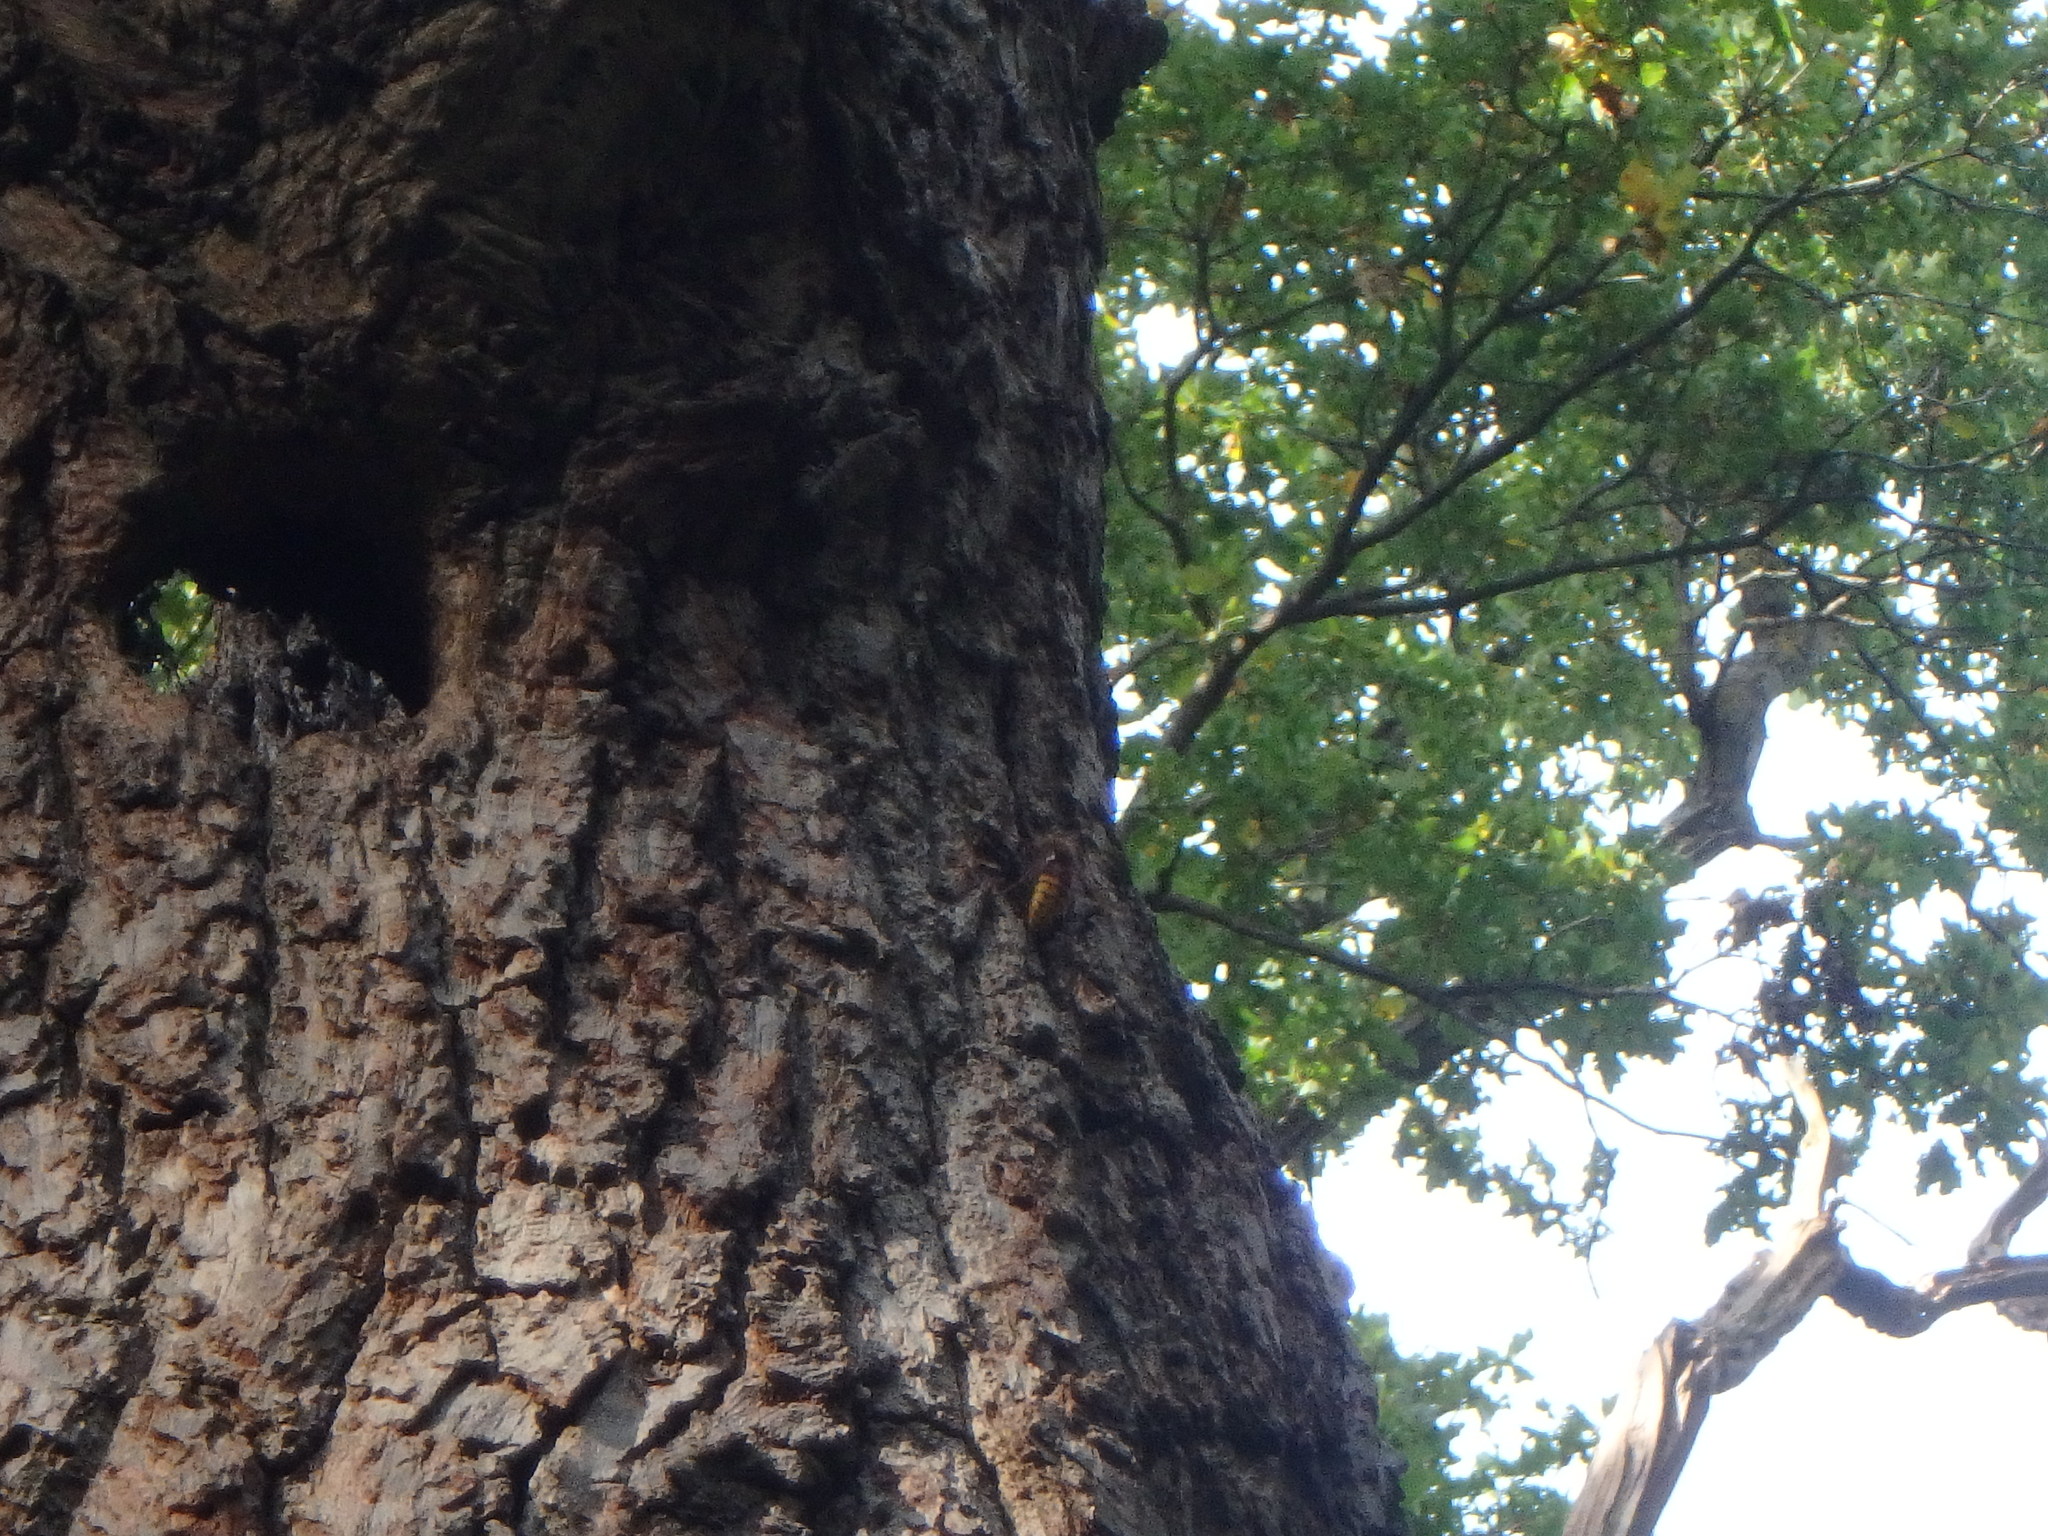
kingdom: Animalia
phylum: Arthropoda
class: Insecta
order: Hymenoptera
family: Vespidae
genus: Vespa
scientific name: Vespa crabro
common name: Hornet
